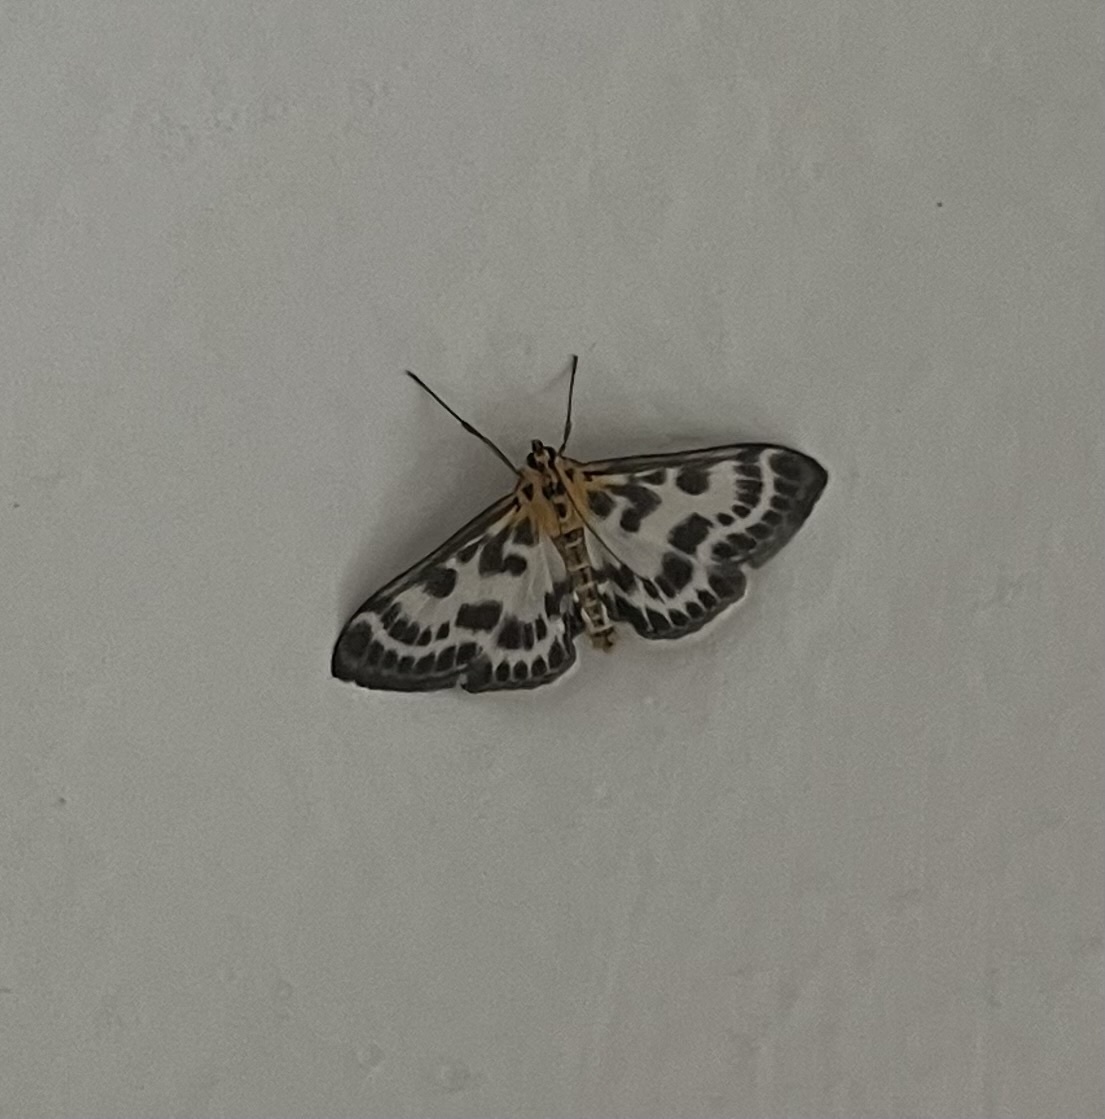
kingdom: Animalia
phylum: Arthropoda
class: Insecta
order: Lepidoptera
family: Crambidae
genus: Anania
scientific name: Anania hortulata
